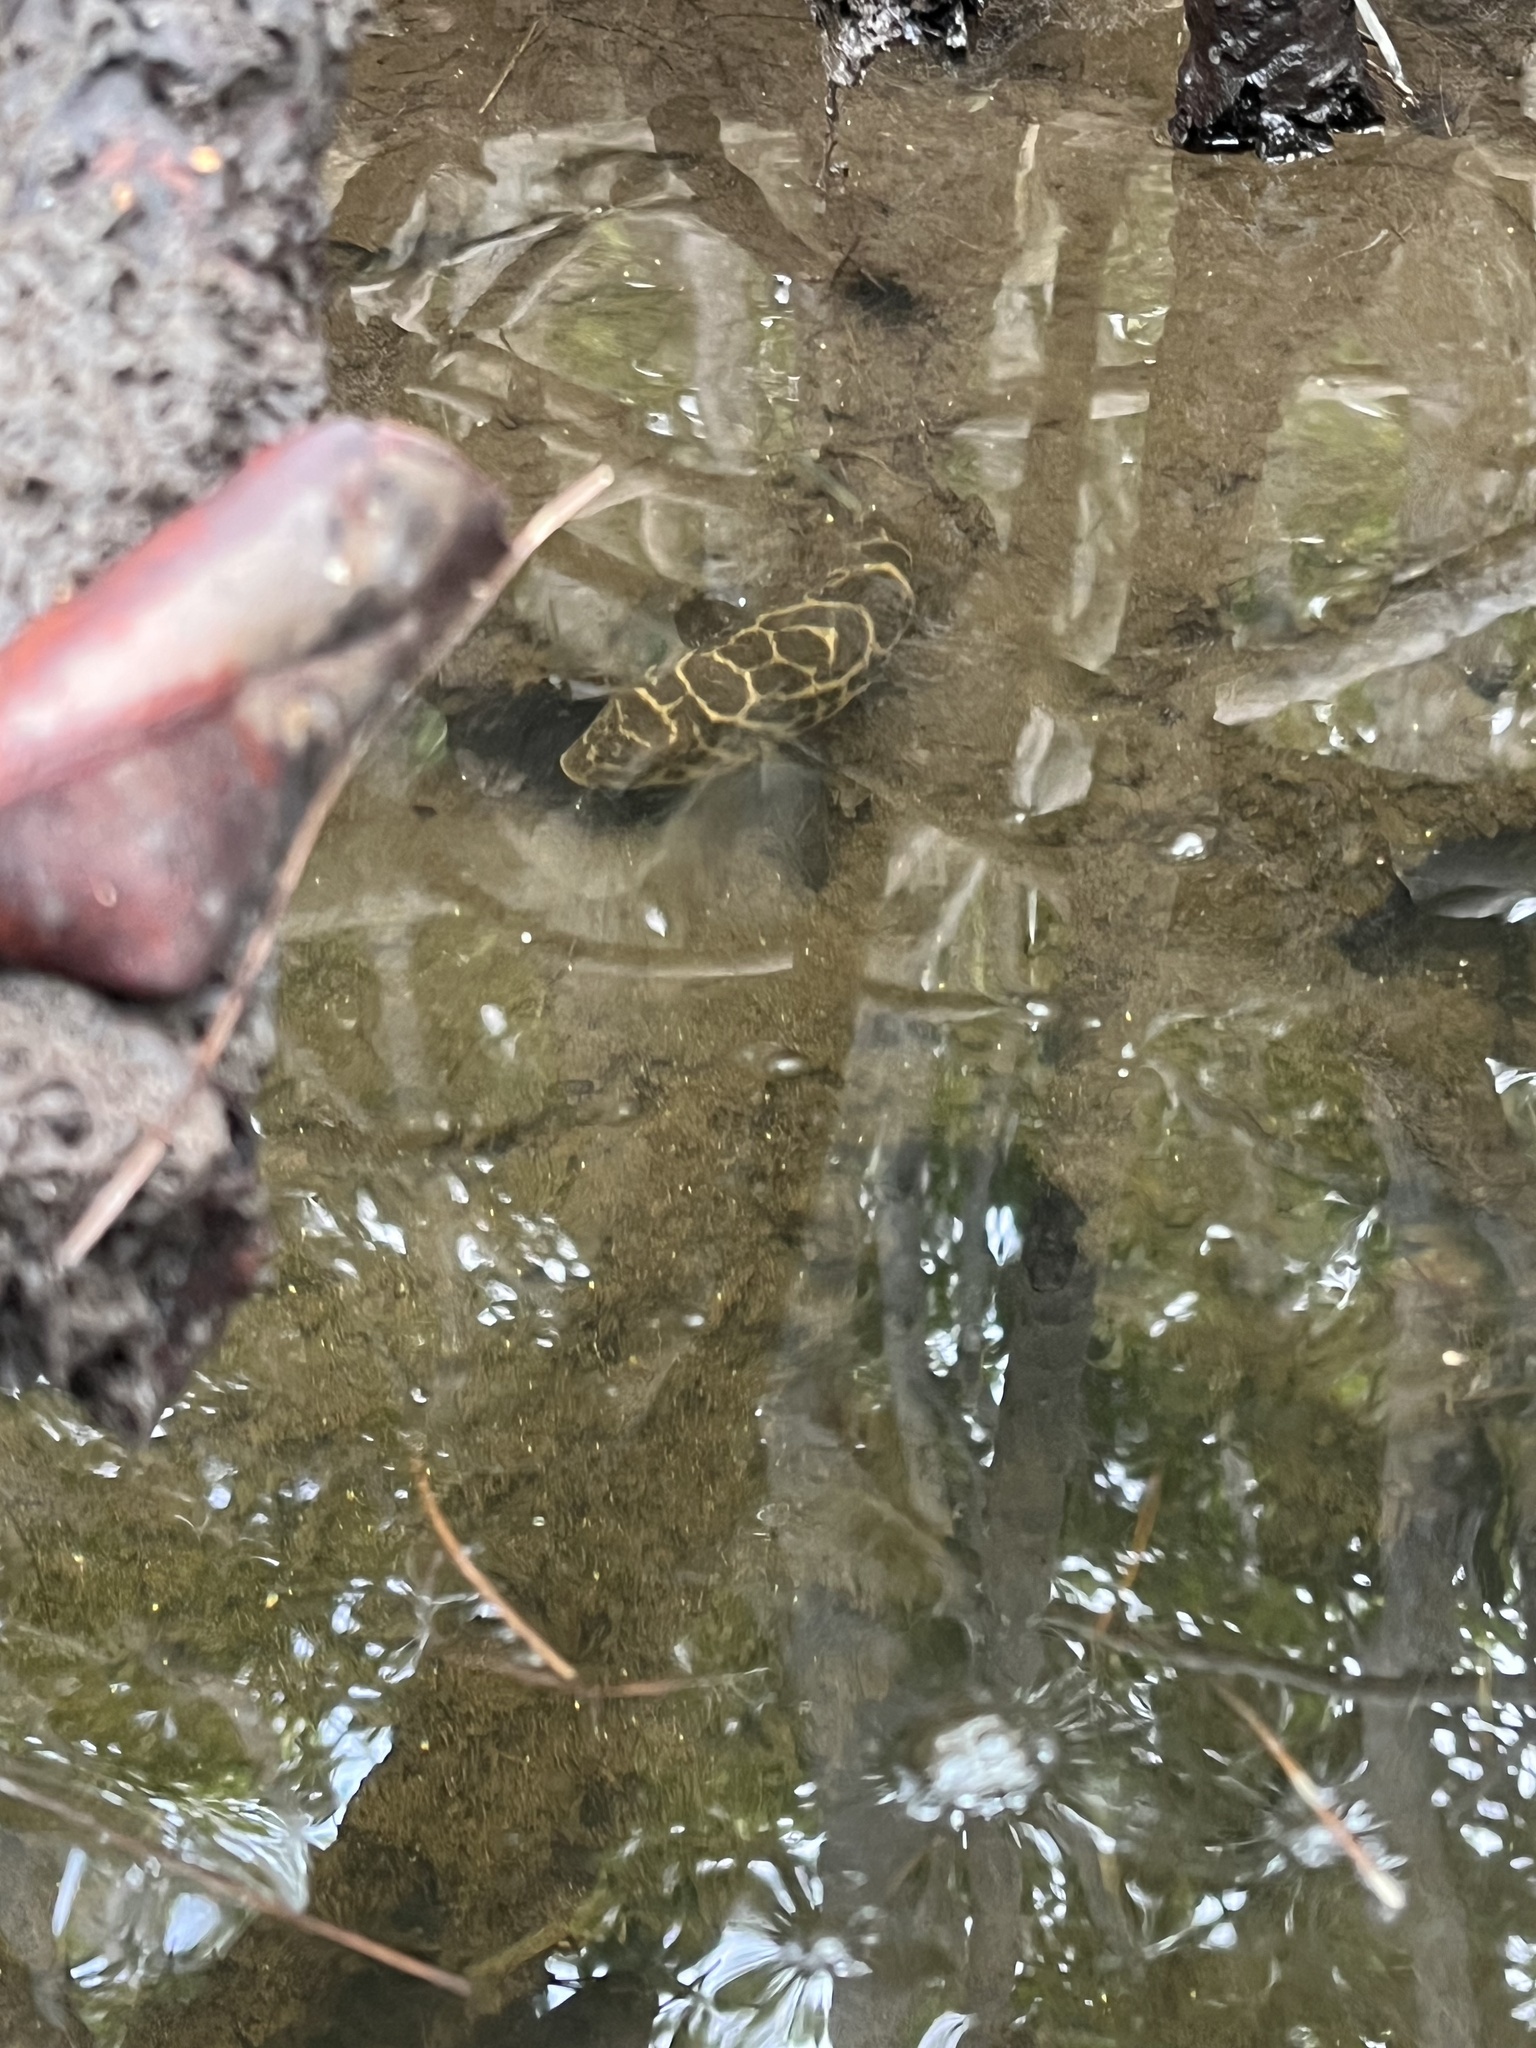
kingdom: Animalia
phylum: Chordata
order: Tetraodontiformes
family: Tetraodontidae
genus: Sphoeroides
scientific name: Sphoeroides testudineus
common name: Checkered puffer
